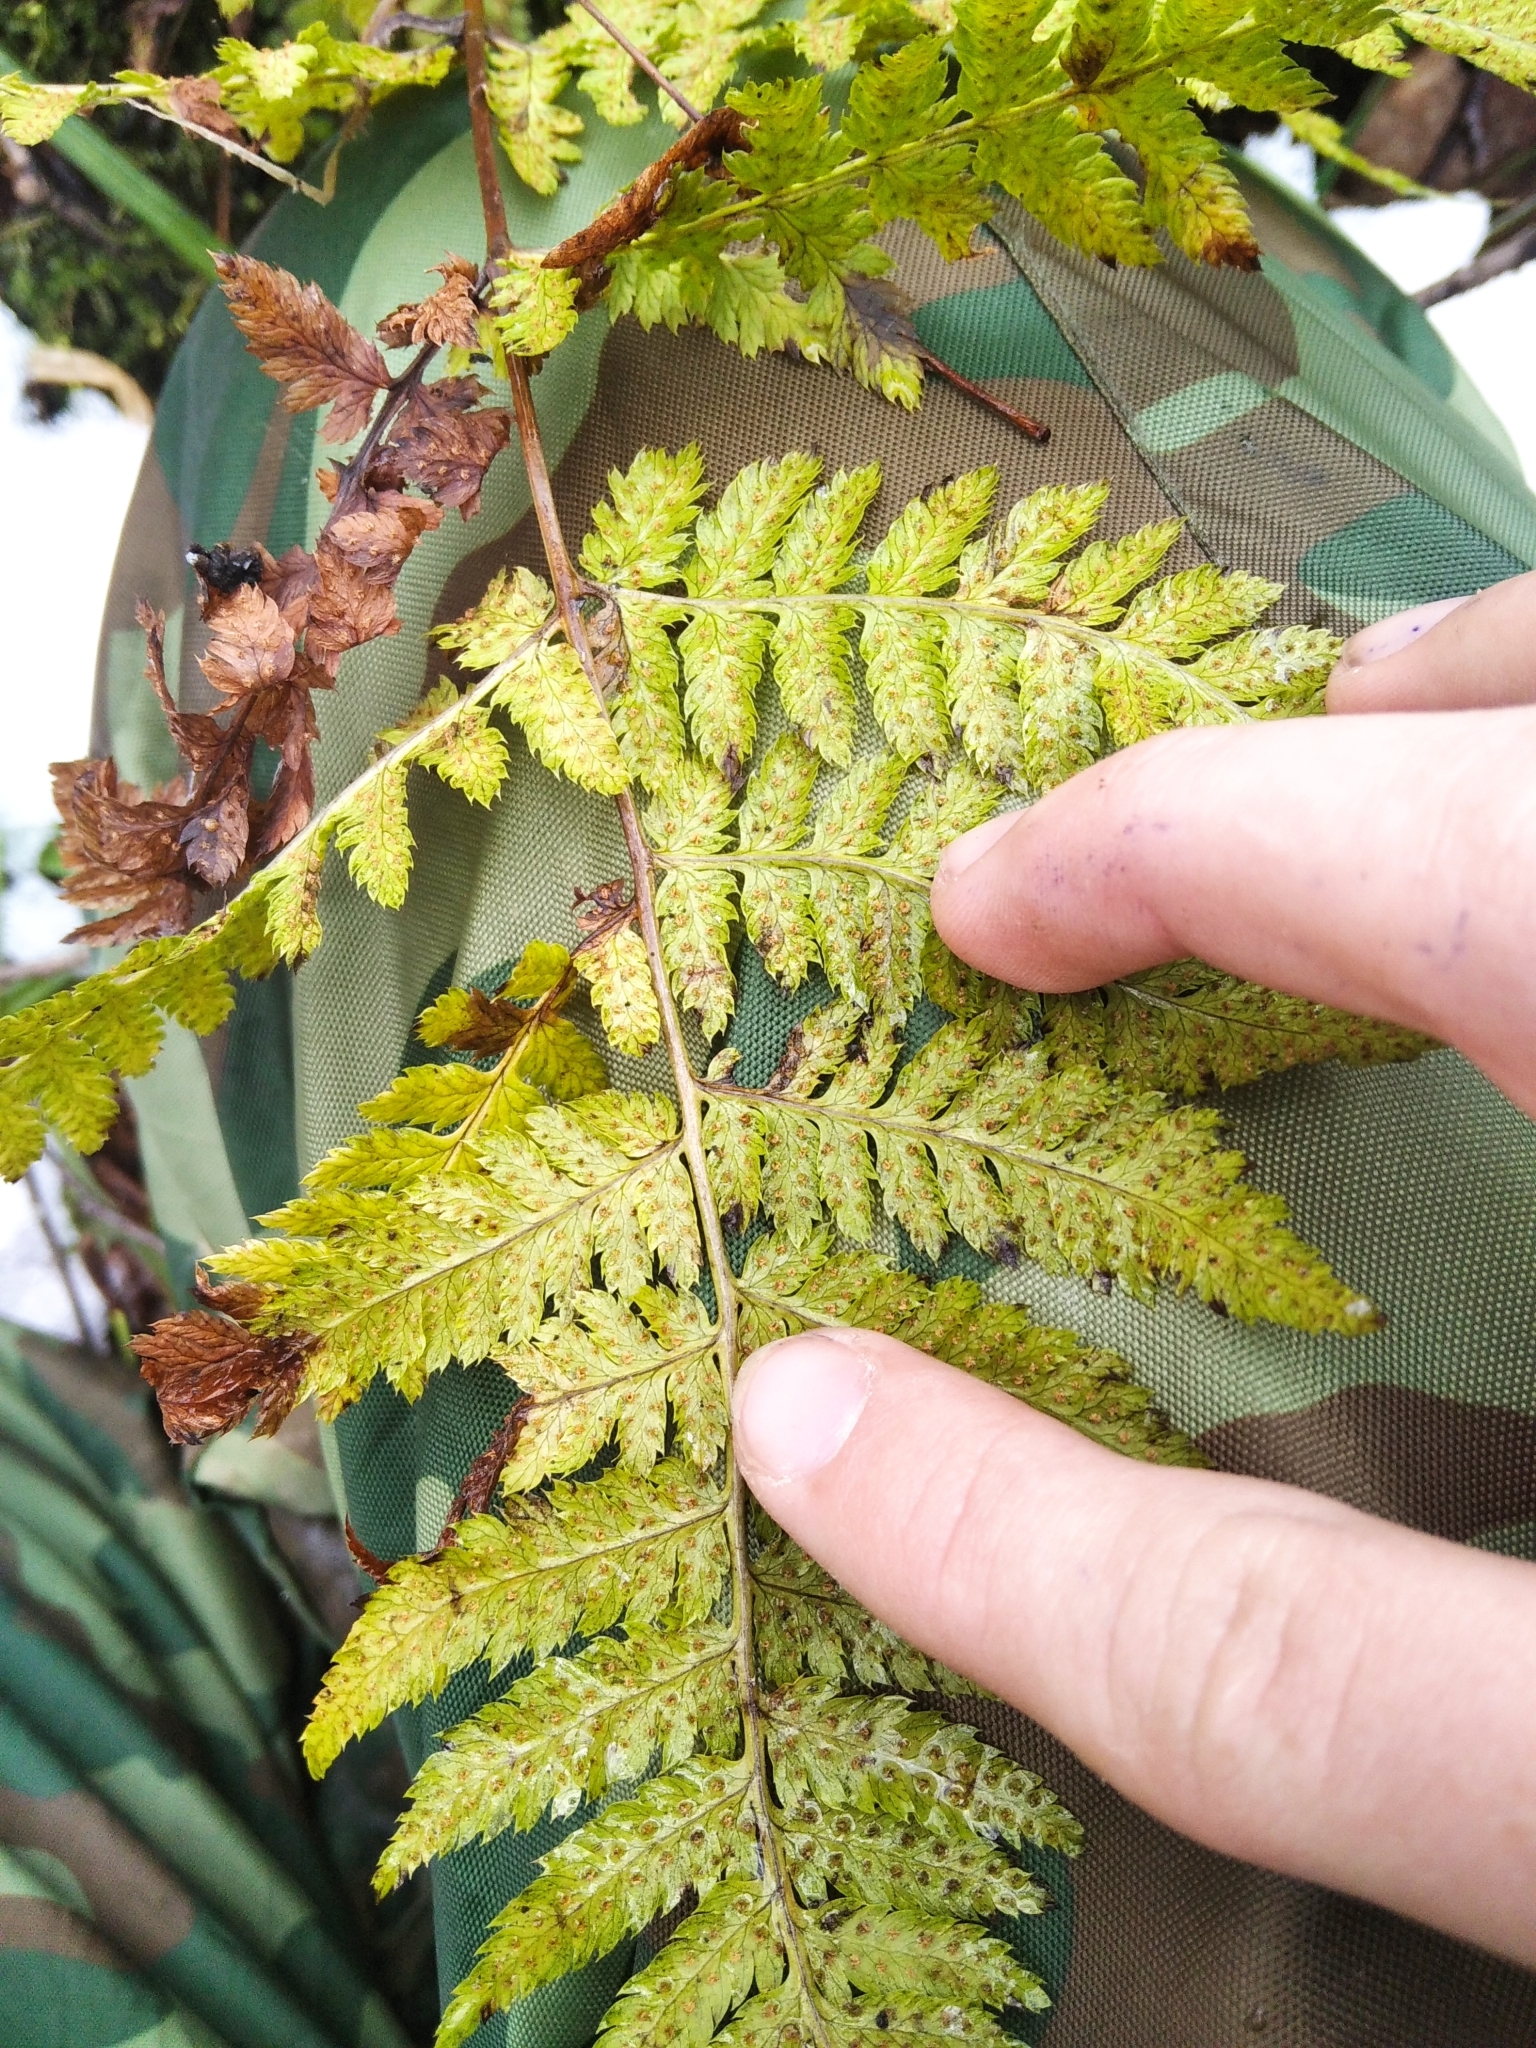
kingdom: Plantae
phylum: Tracheophyta
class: Polypodiopsida
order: Polypodiales
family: Dryopteridaceae
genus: Dryopteris
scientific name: Dryopteris carthusiana
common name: Narrow buckler-fern
